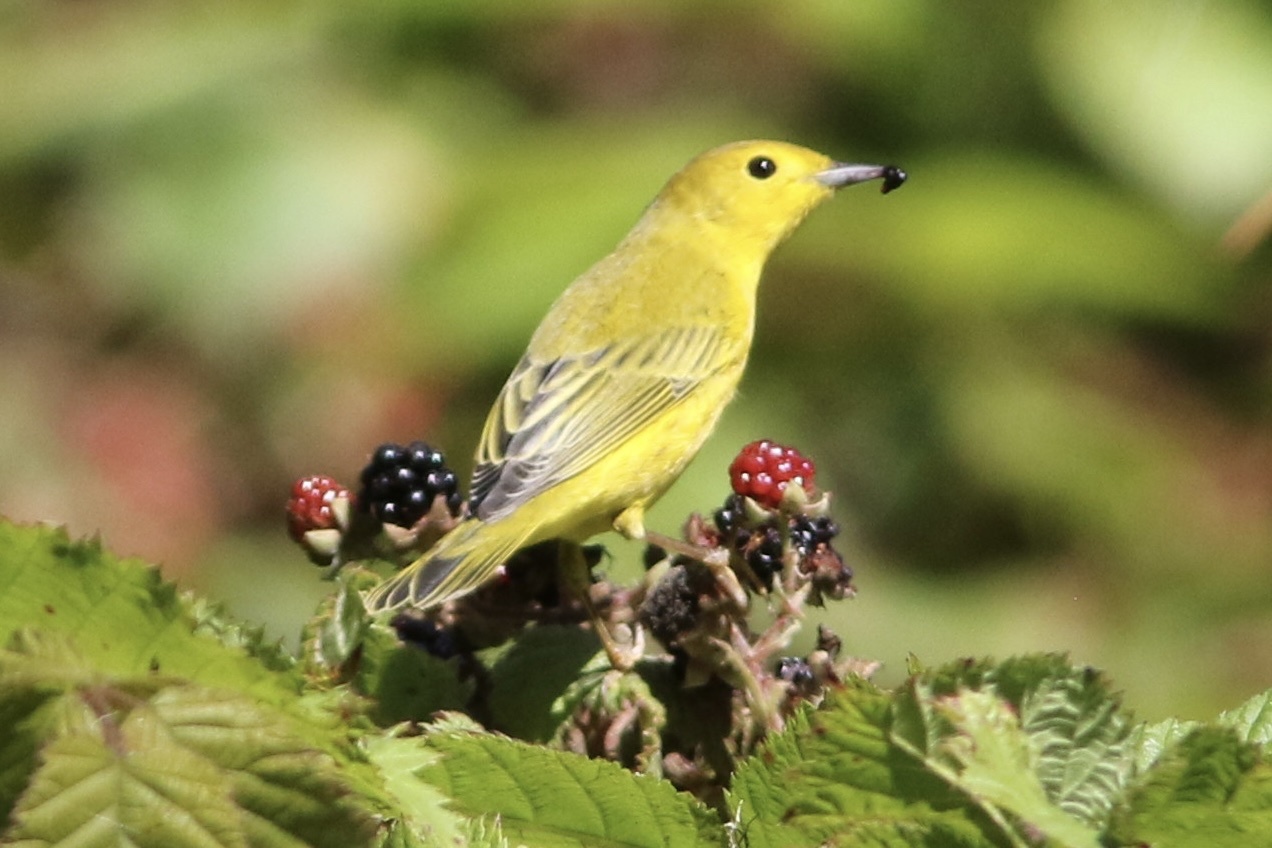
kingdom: Animalia
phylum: Chordata
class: Aves
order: Passeriformes
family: Parulidae
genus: Setophaga
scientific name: Setophaga petechia
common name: Yellow warbler
